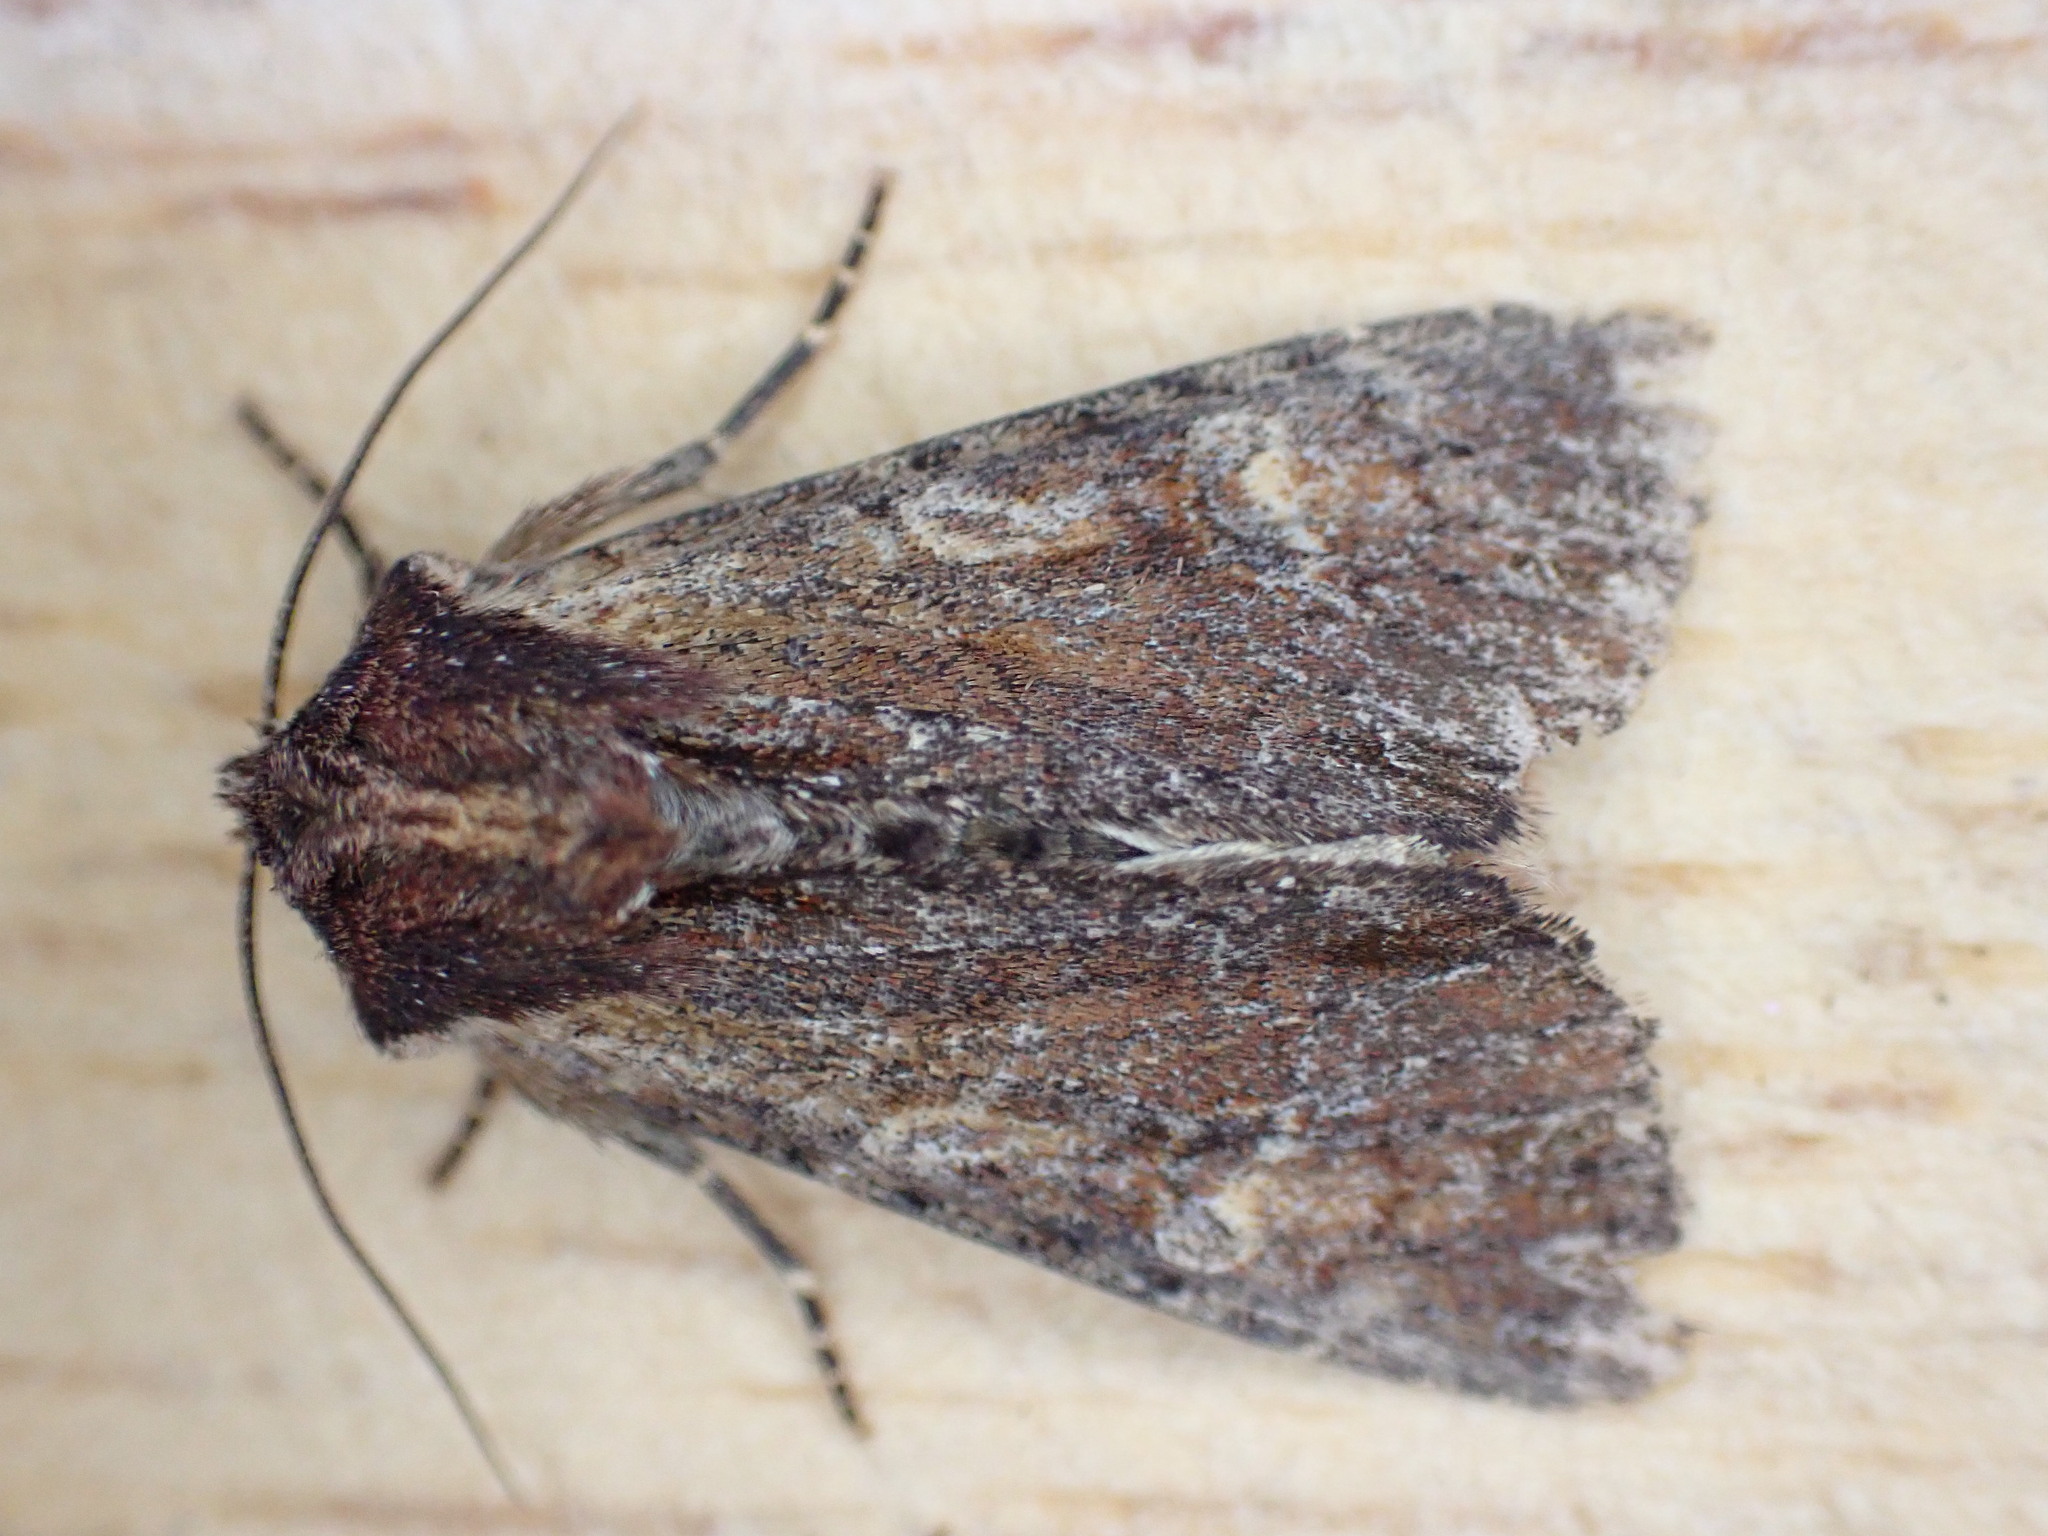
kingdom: Animalia
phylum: Arthropoda
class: Insecta
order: Lepidoptera
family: Noctuidae
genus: Apamea
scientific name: Apamea crenata
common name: Clouded-bordered brindle
